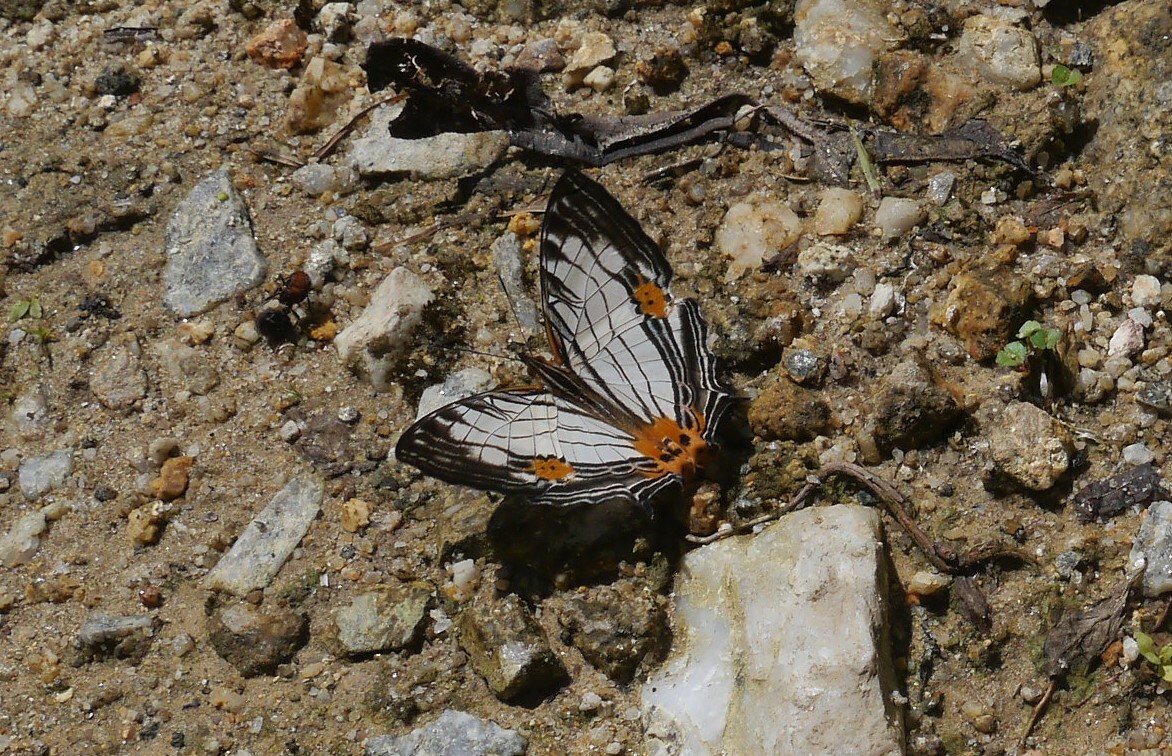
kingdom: Animalia
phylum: Arthropoda
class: Insecta
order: Lepidoptera
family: Nymphalidae
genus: Cyrestis
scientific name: Cyrestis maenalis
